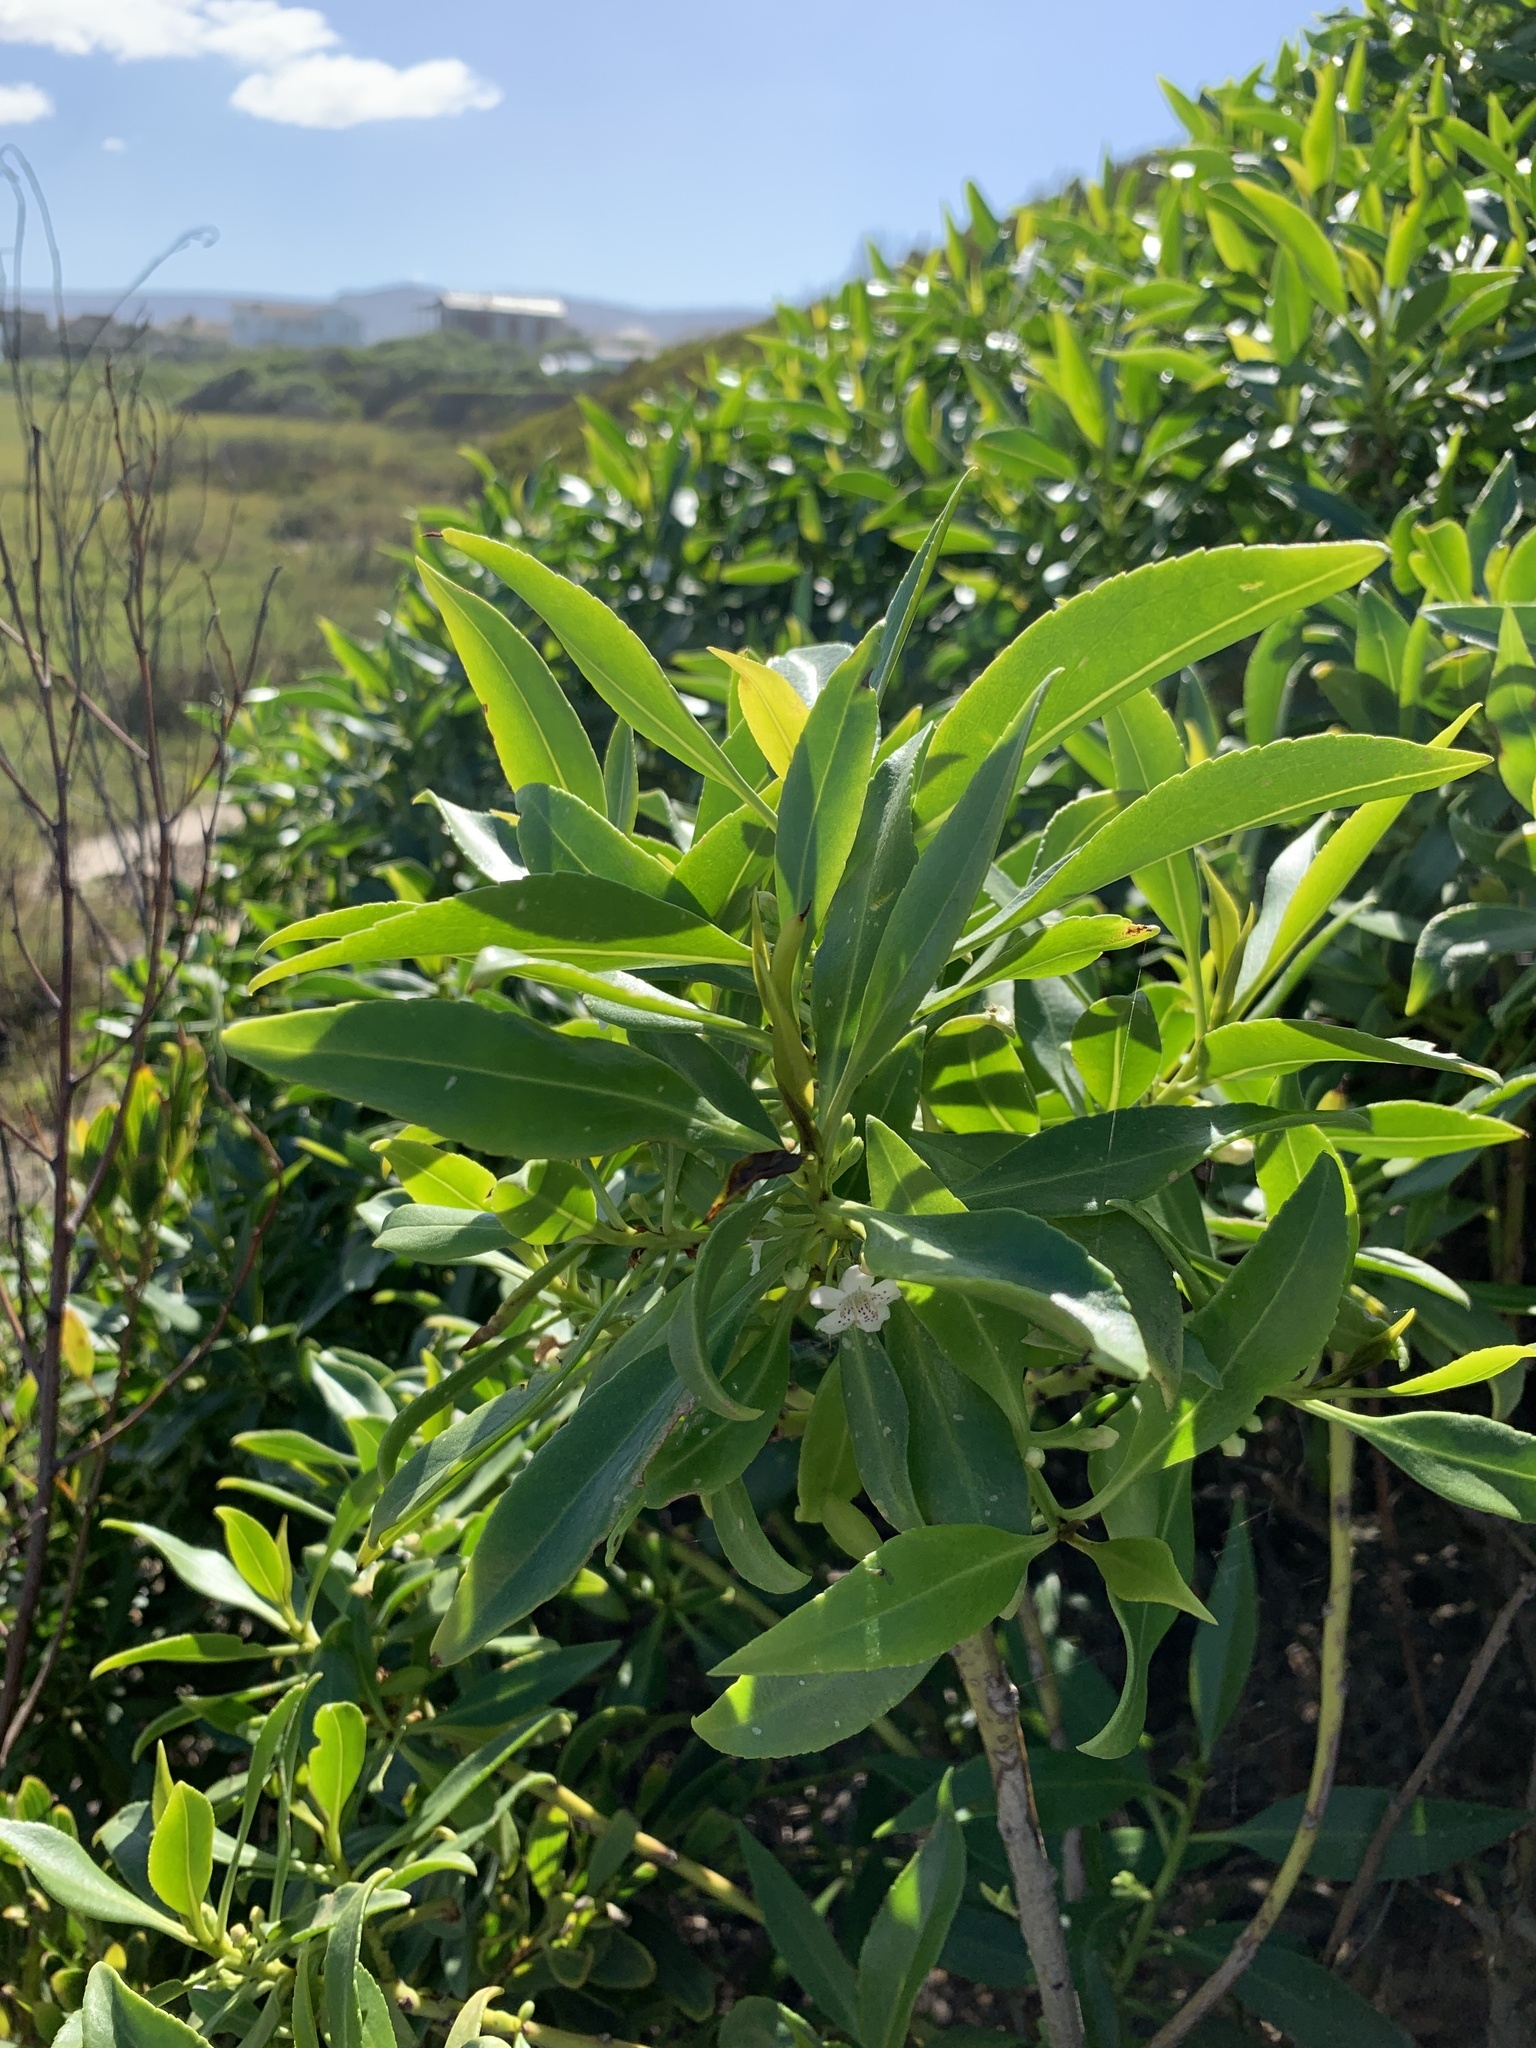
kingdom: Plantae
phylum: Tracheophyta
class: Magnoliopsida
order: Lamiales
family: Scrophulariaceae
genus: Myoporum
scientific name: Myoporum insulare
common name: Common boobialla
